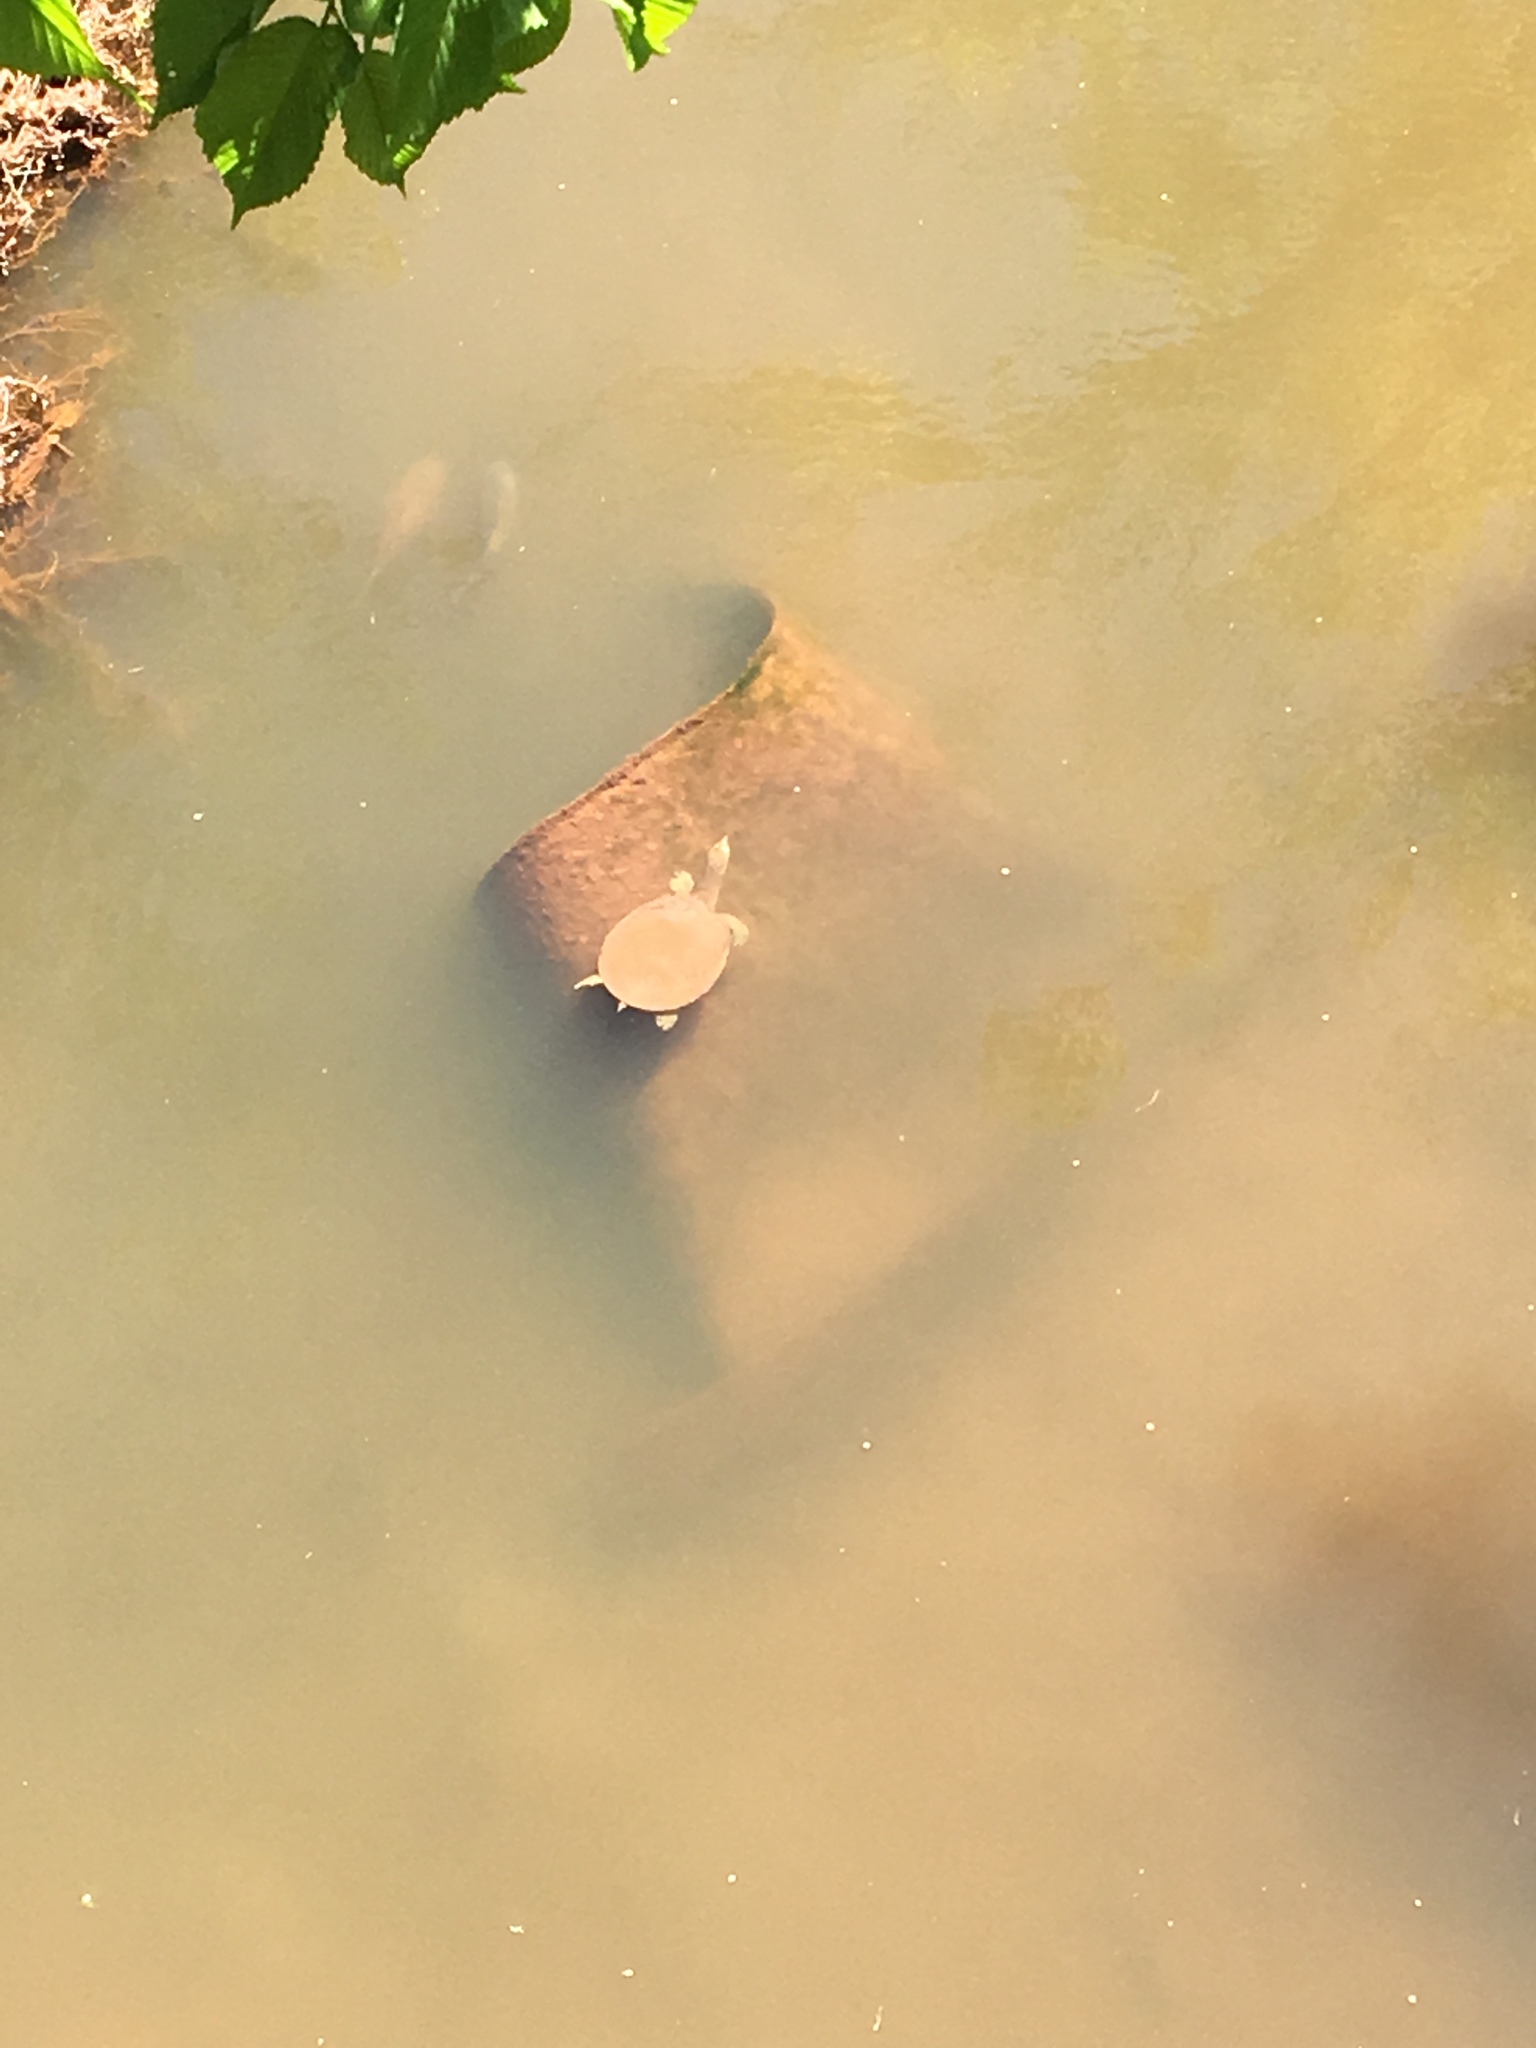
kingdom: Animalia
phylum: Chordata
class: Testudines
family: Trionychidae
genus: Apalone
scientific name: Apalone spinifera
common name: Spiny softshell turtle
